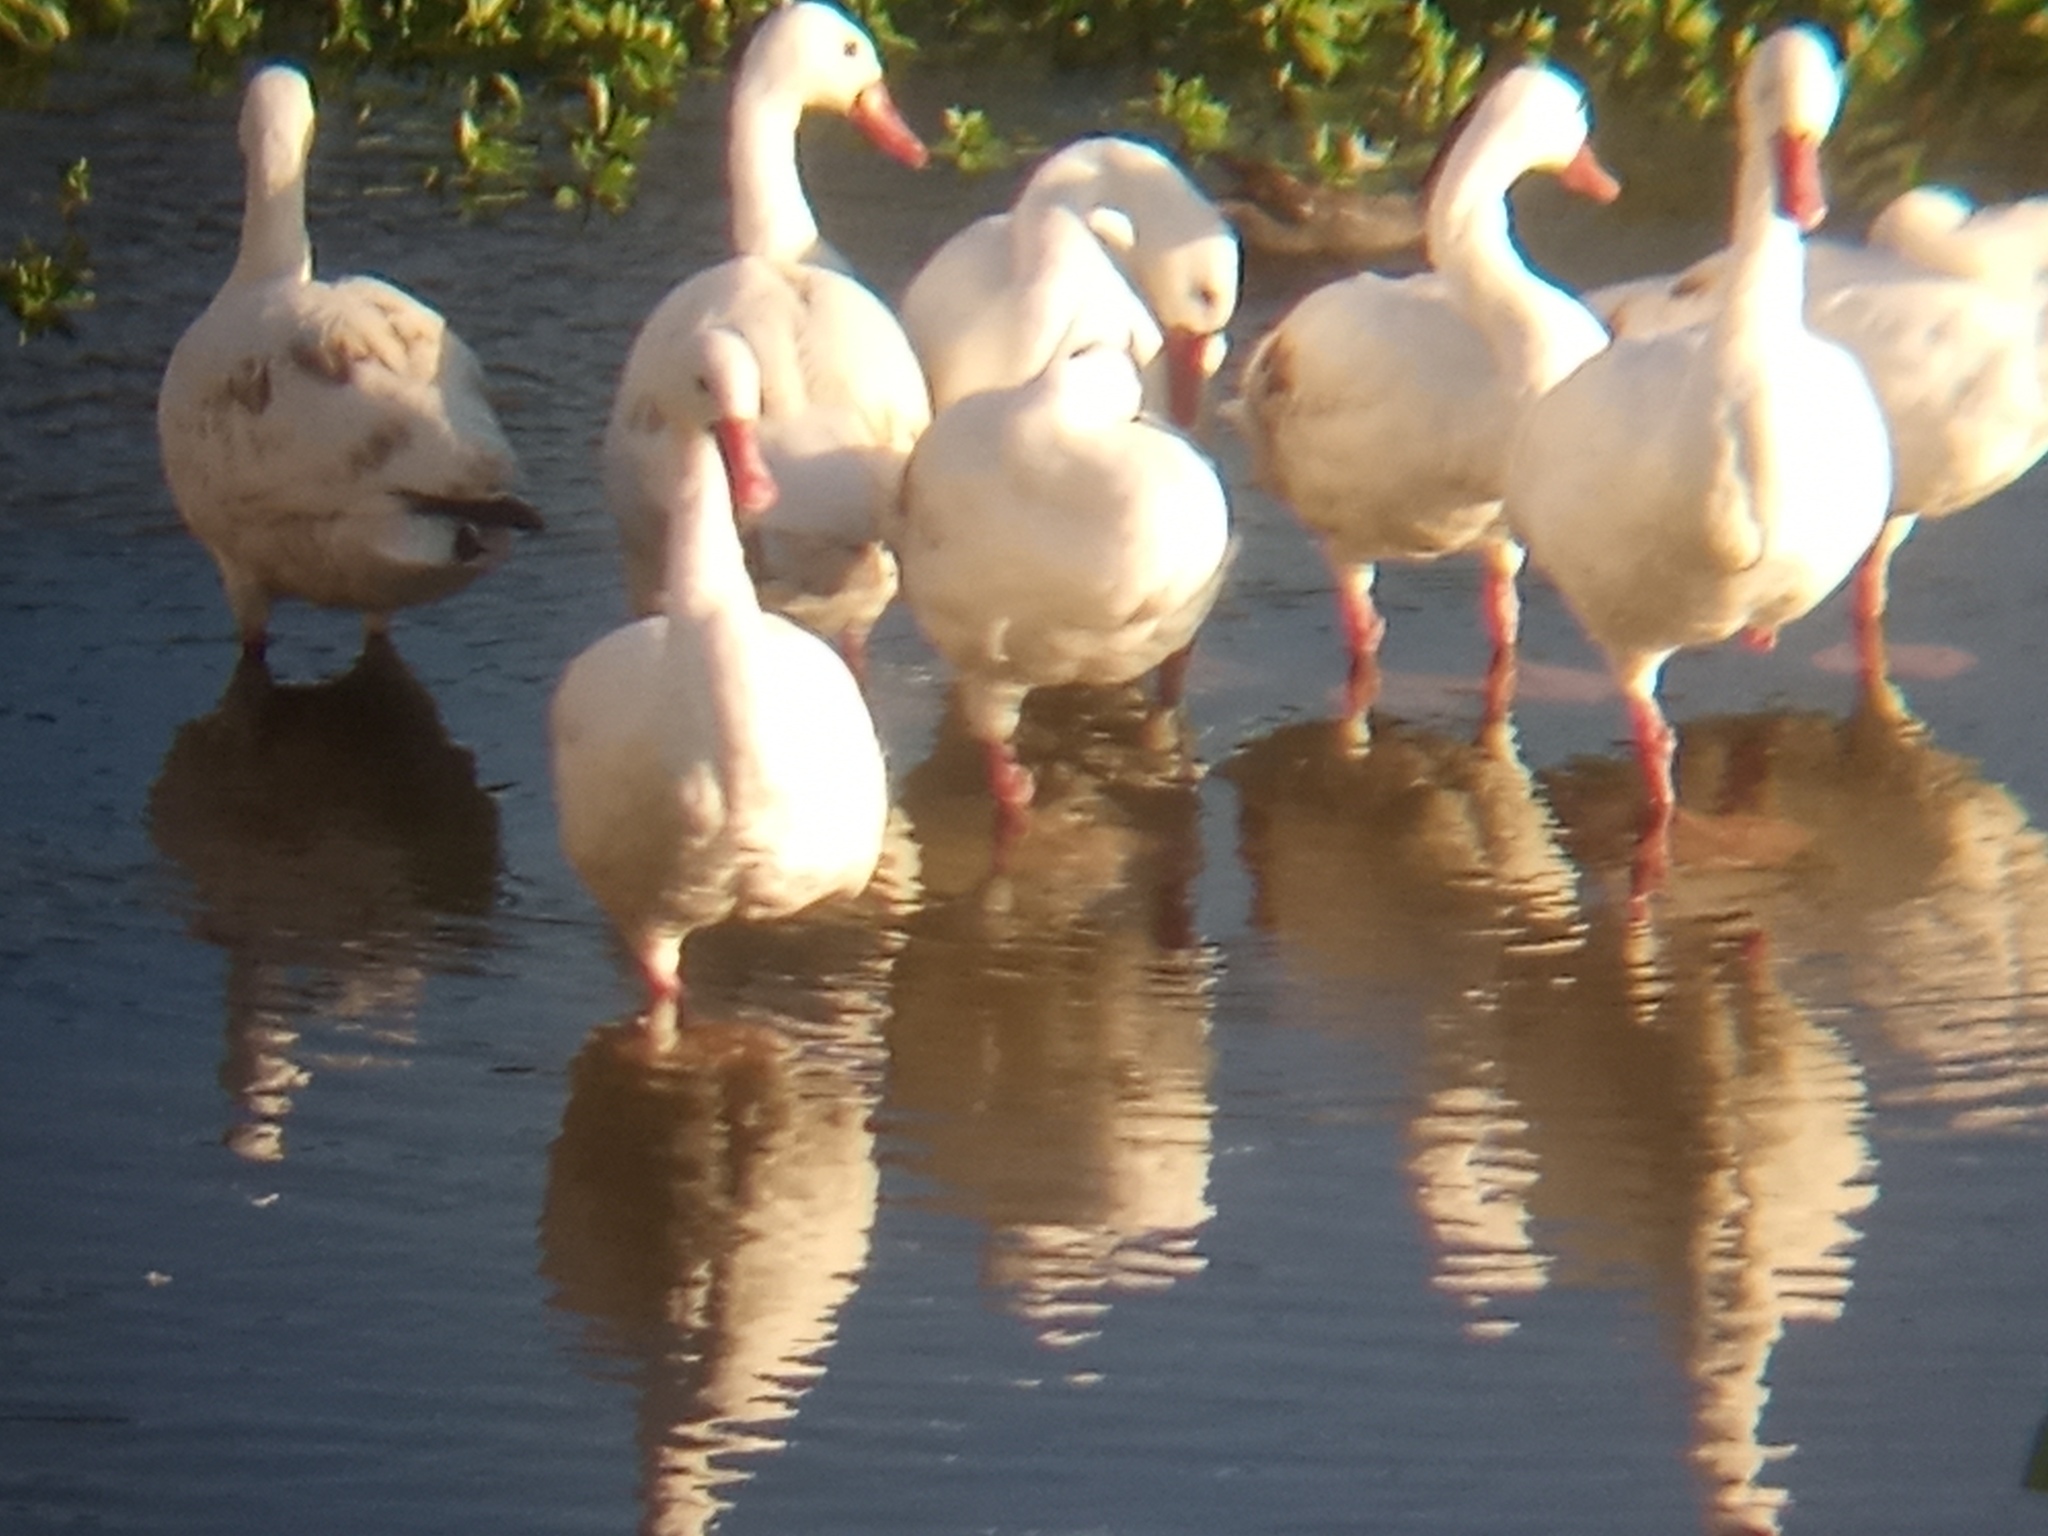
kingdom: Animalia
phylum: Chordata
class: Aves
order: Anseriformes
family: Anatidae
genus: Coscoroba
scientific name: Coscoroba coscoroba
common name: Coscoroba swan
